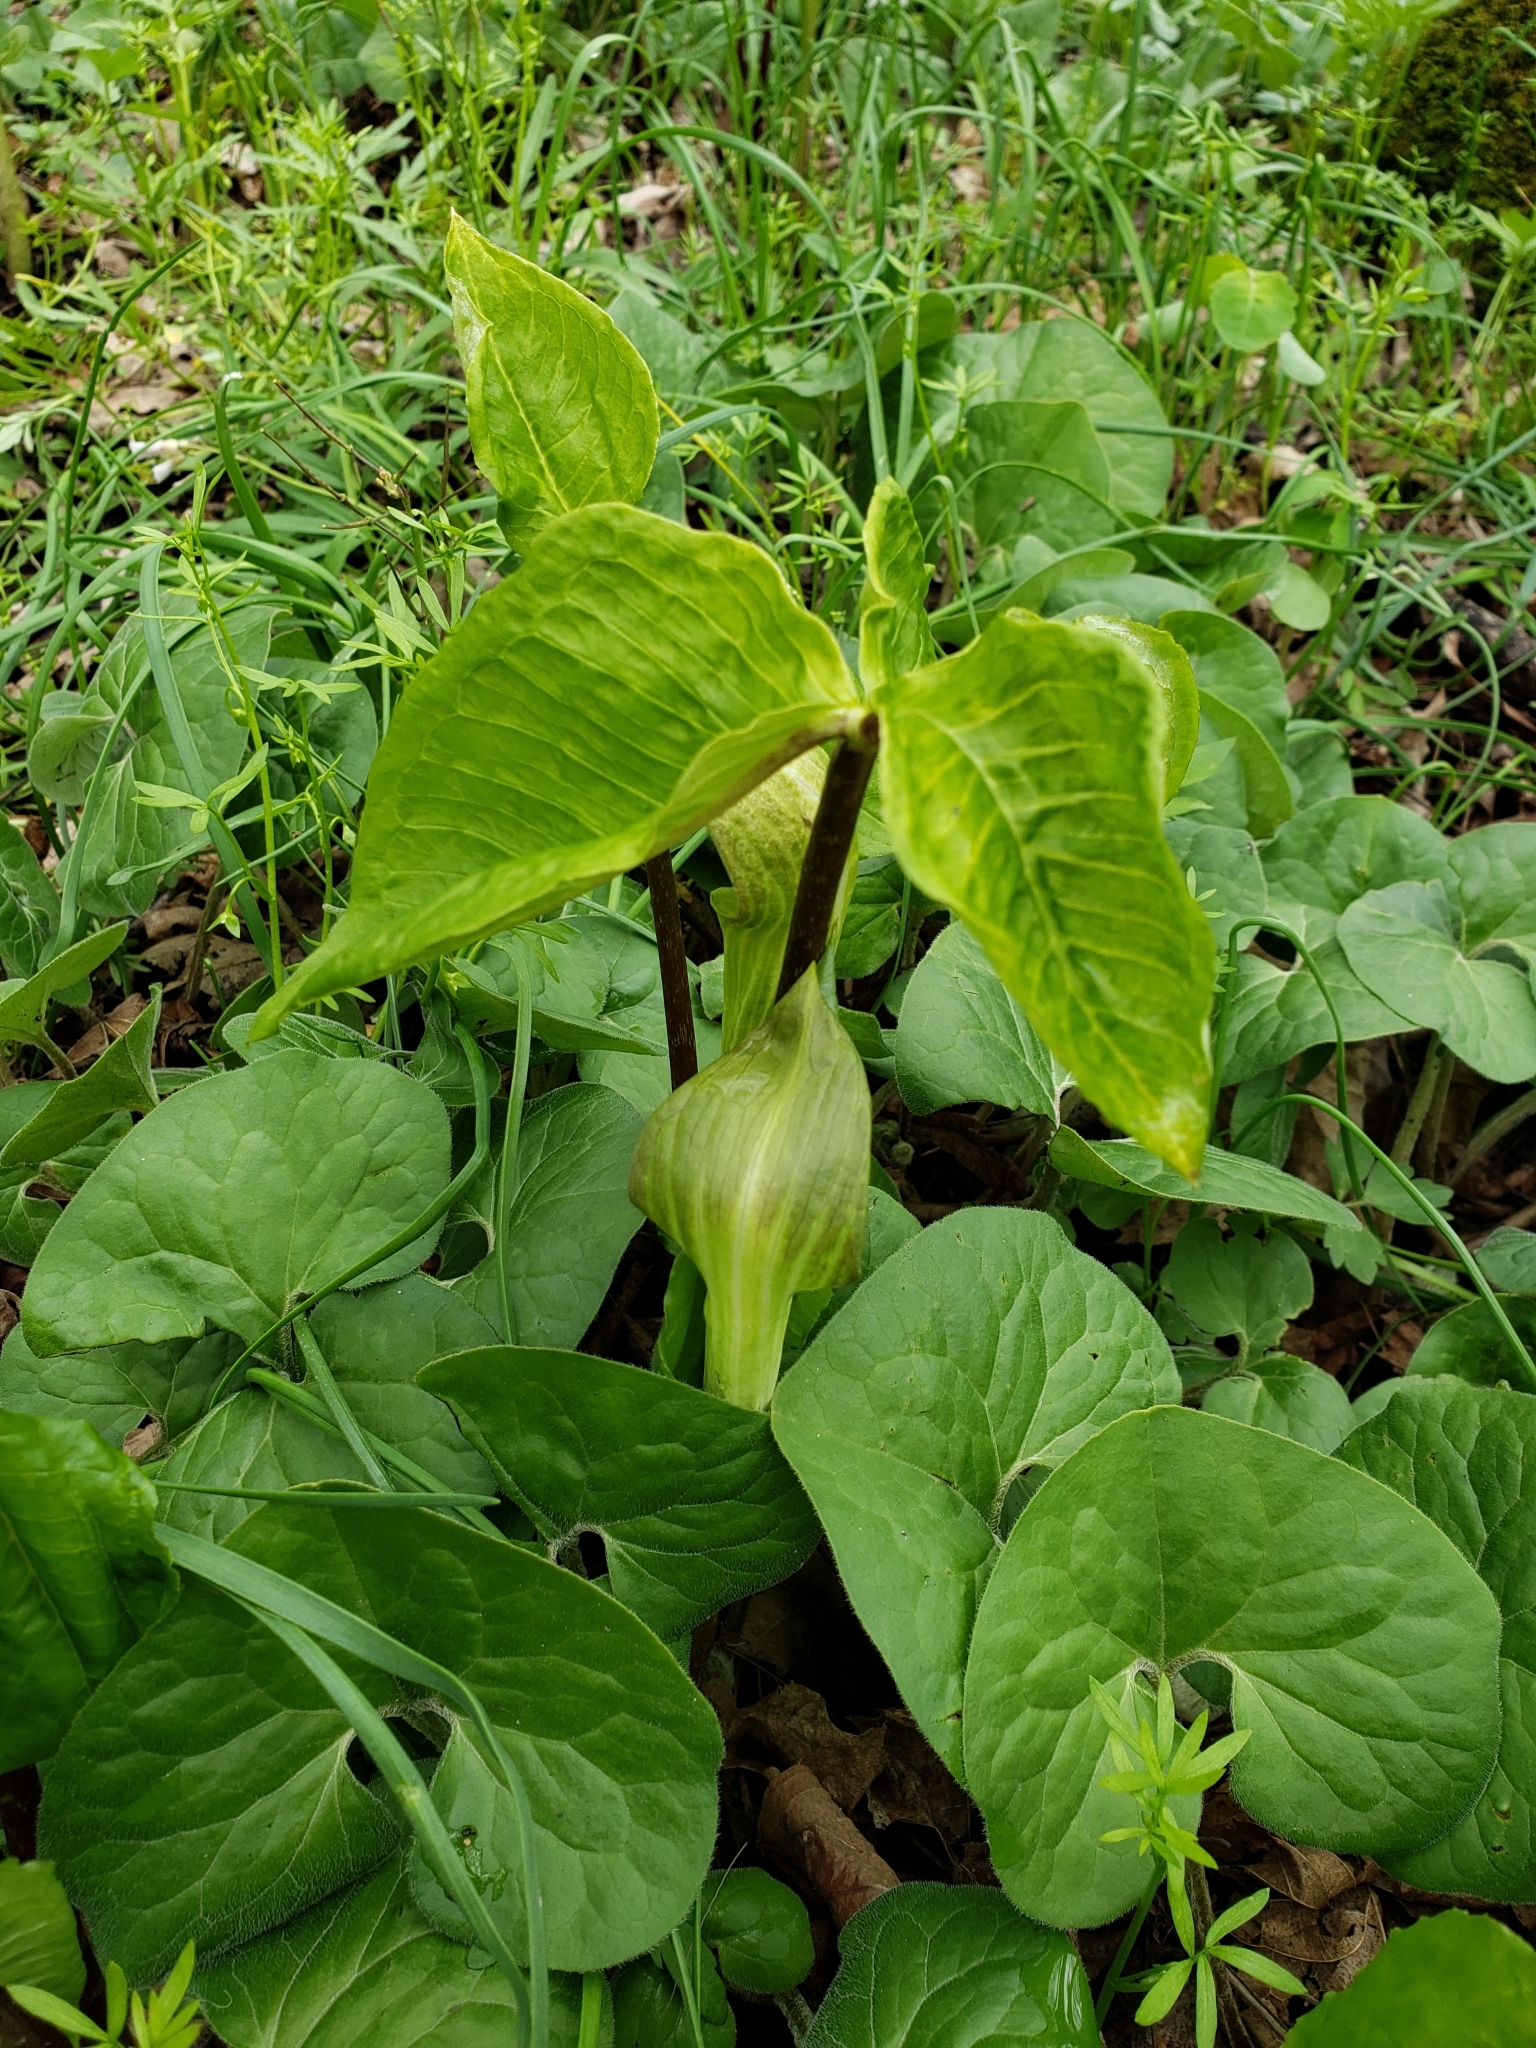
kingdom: Plantae
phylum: Tracheophyta
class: Liliopsida
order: Alismatales
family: Araceae
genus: Arisaema
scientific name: Arisaema triphyllum
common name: Jack-in-the-pulpit
